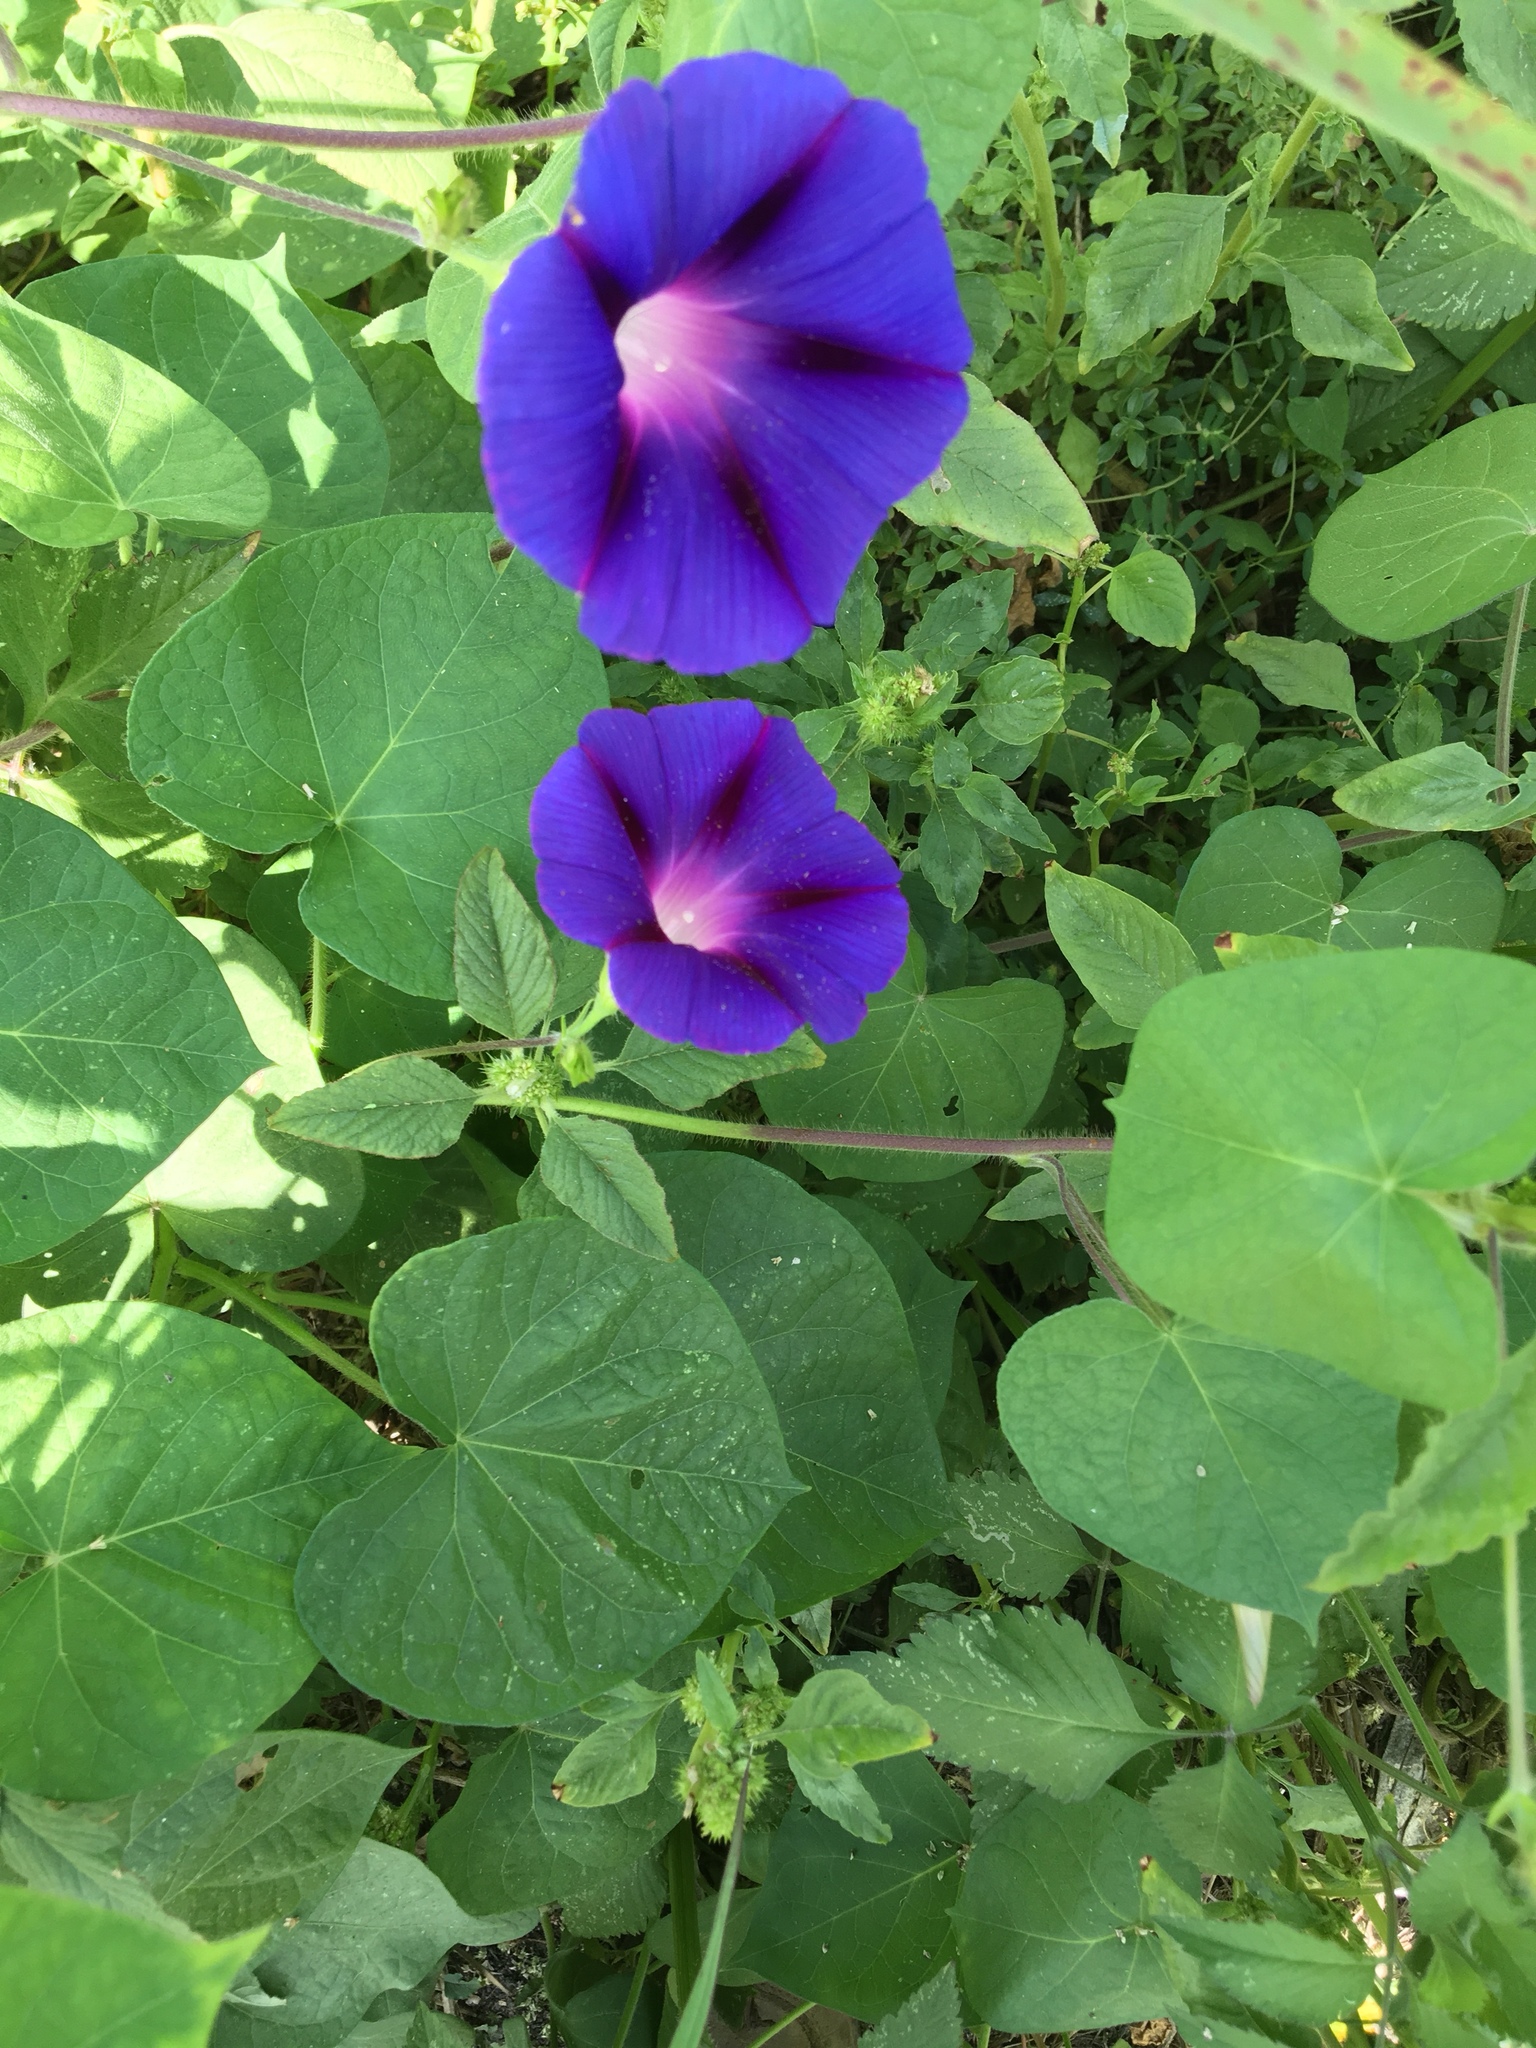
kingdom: Plantae
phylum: Tracheophyta
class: Magnoliopsida
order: Solanales
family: Convolvulaceae
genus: Ipomoea
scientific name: Ipomoea purpurea
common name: Common morning-glory
